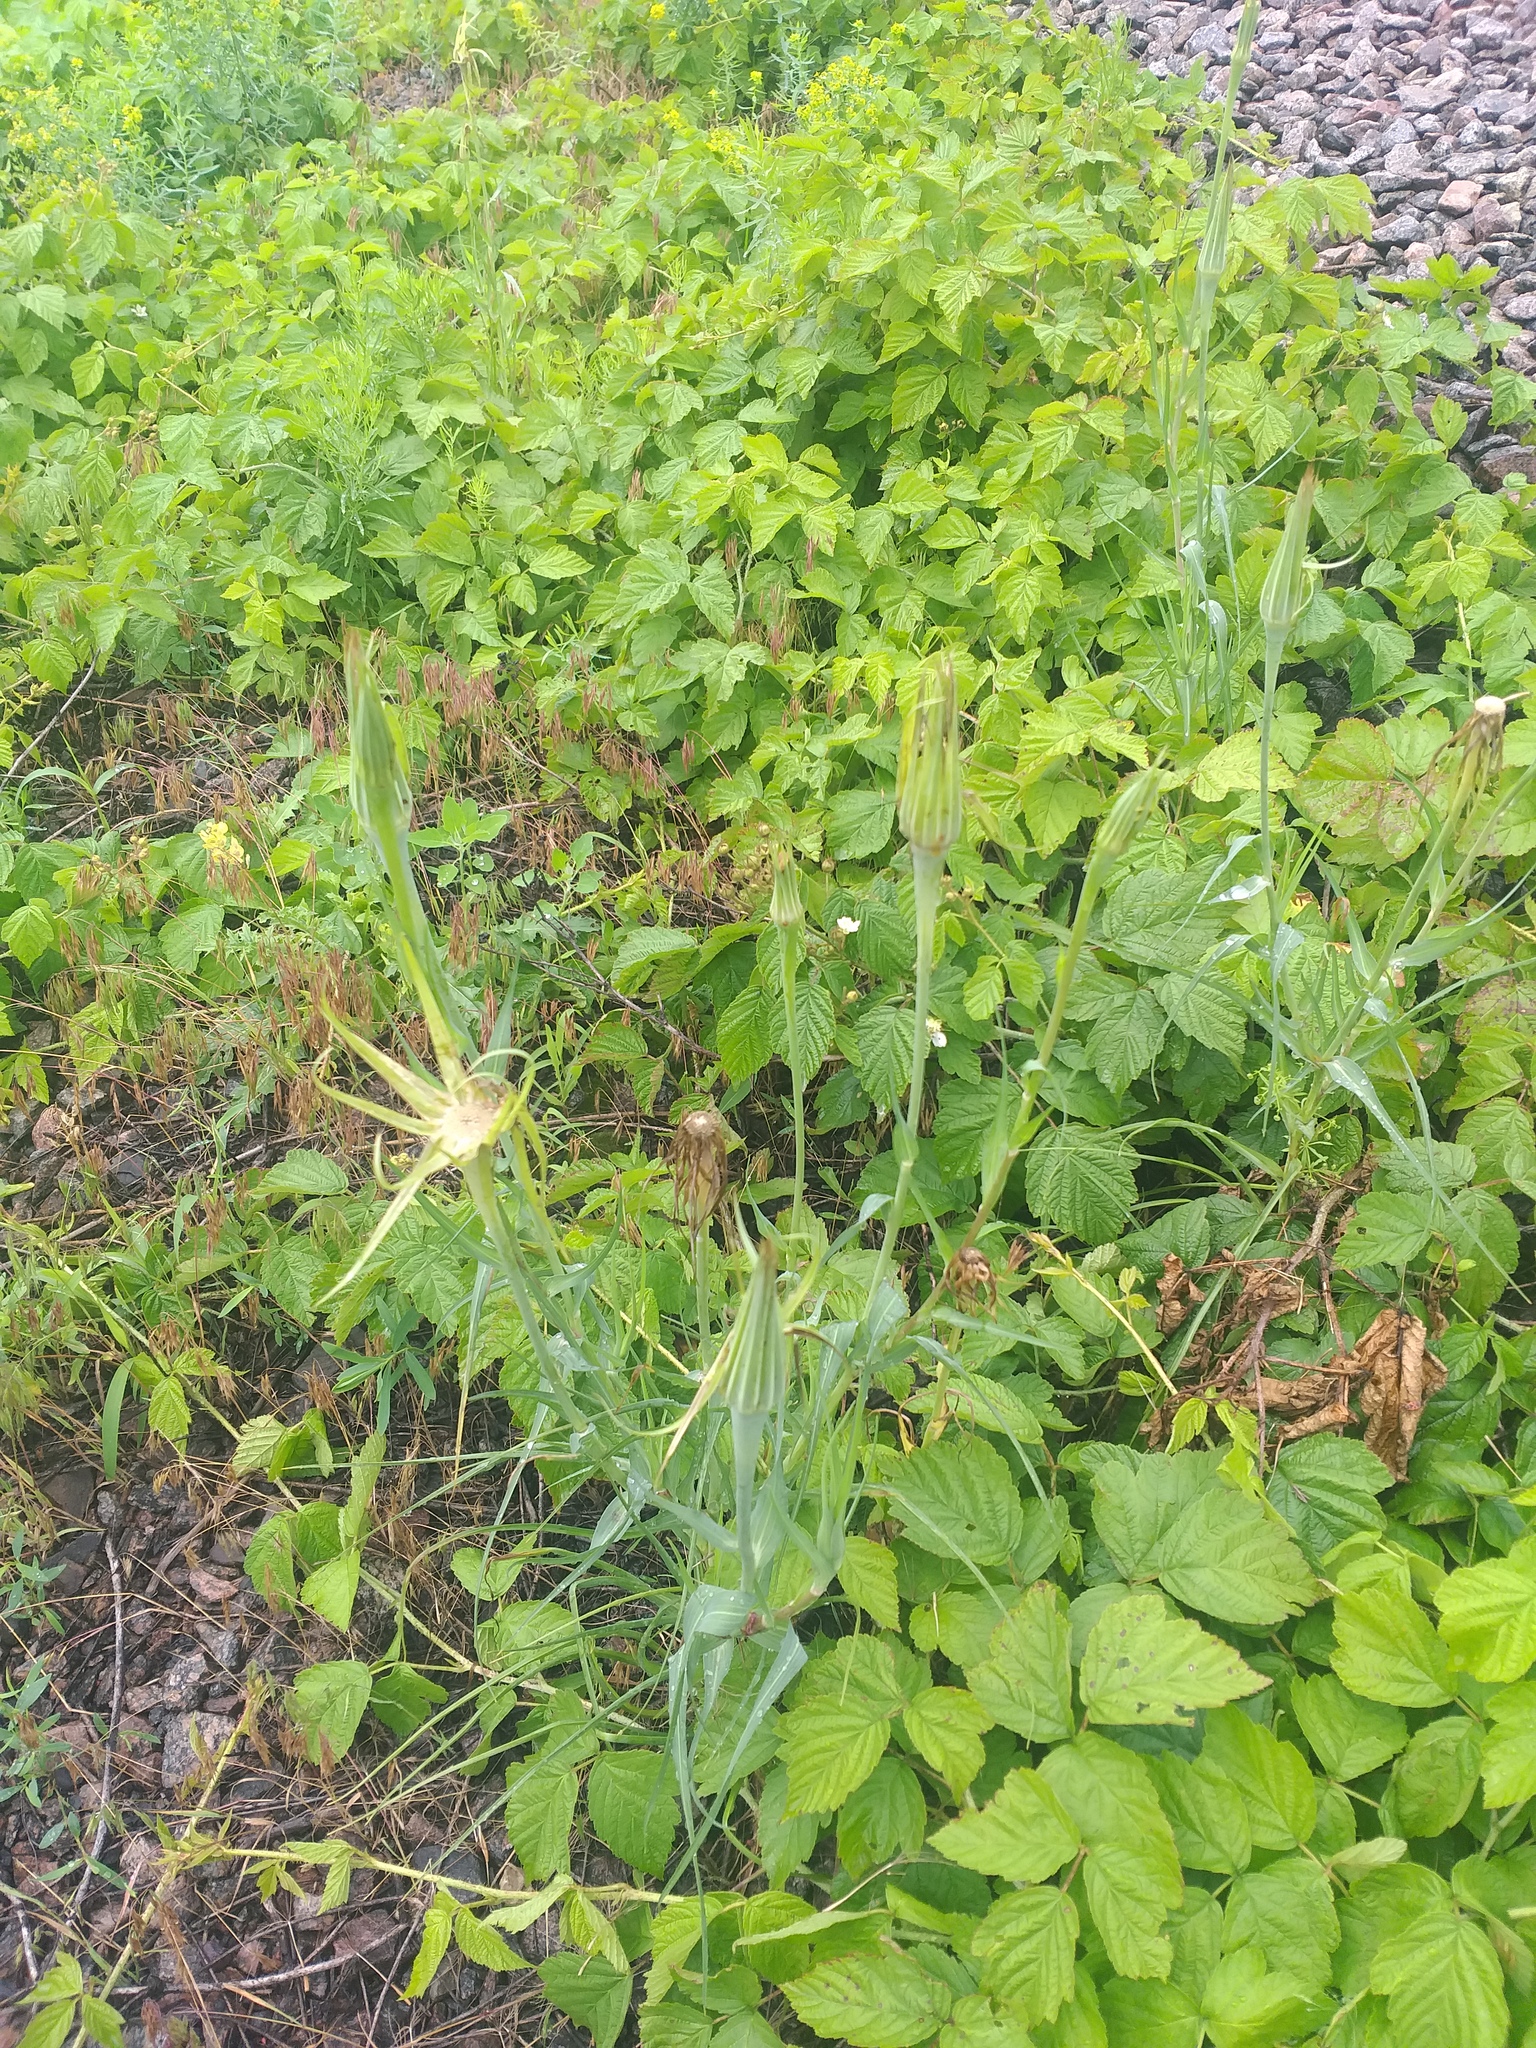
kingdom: Plantae
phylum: Tracheophyta
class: Magnoliopsida
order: Asterales
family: Asteraceae
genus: Tragopogon
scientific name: Tragopogon dubius
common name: Yellow salsify
